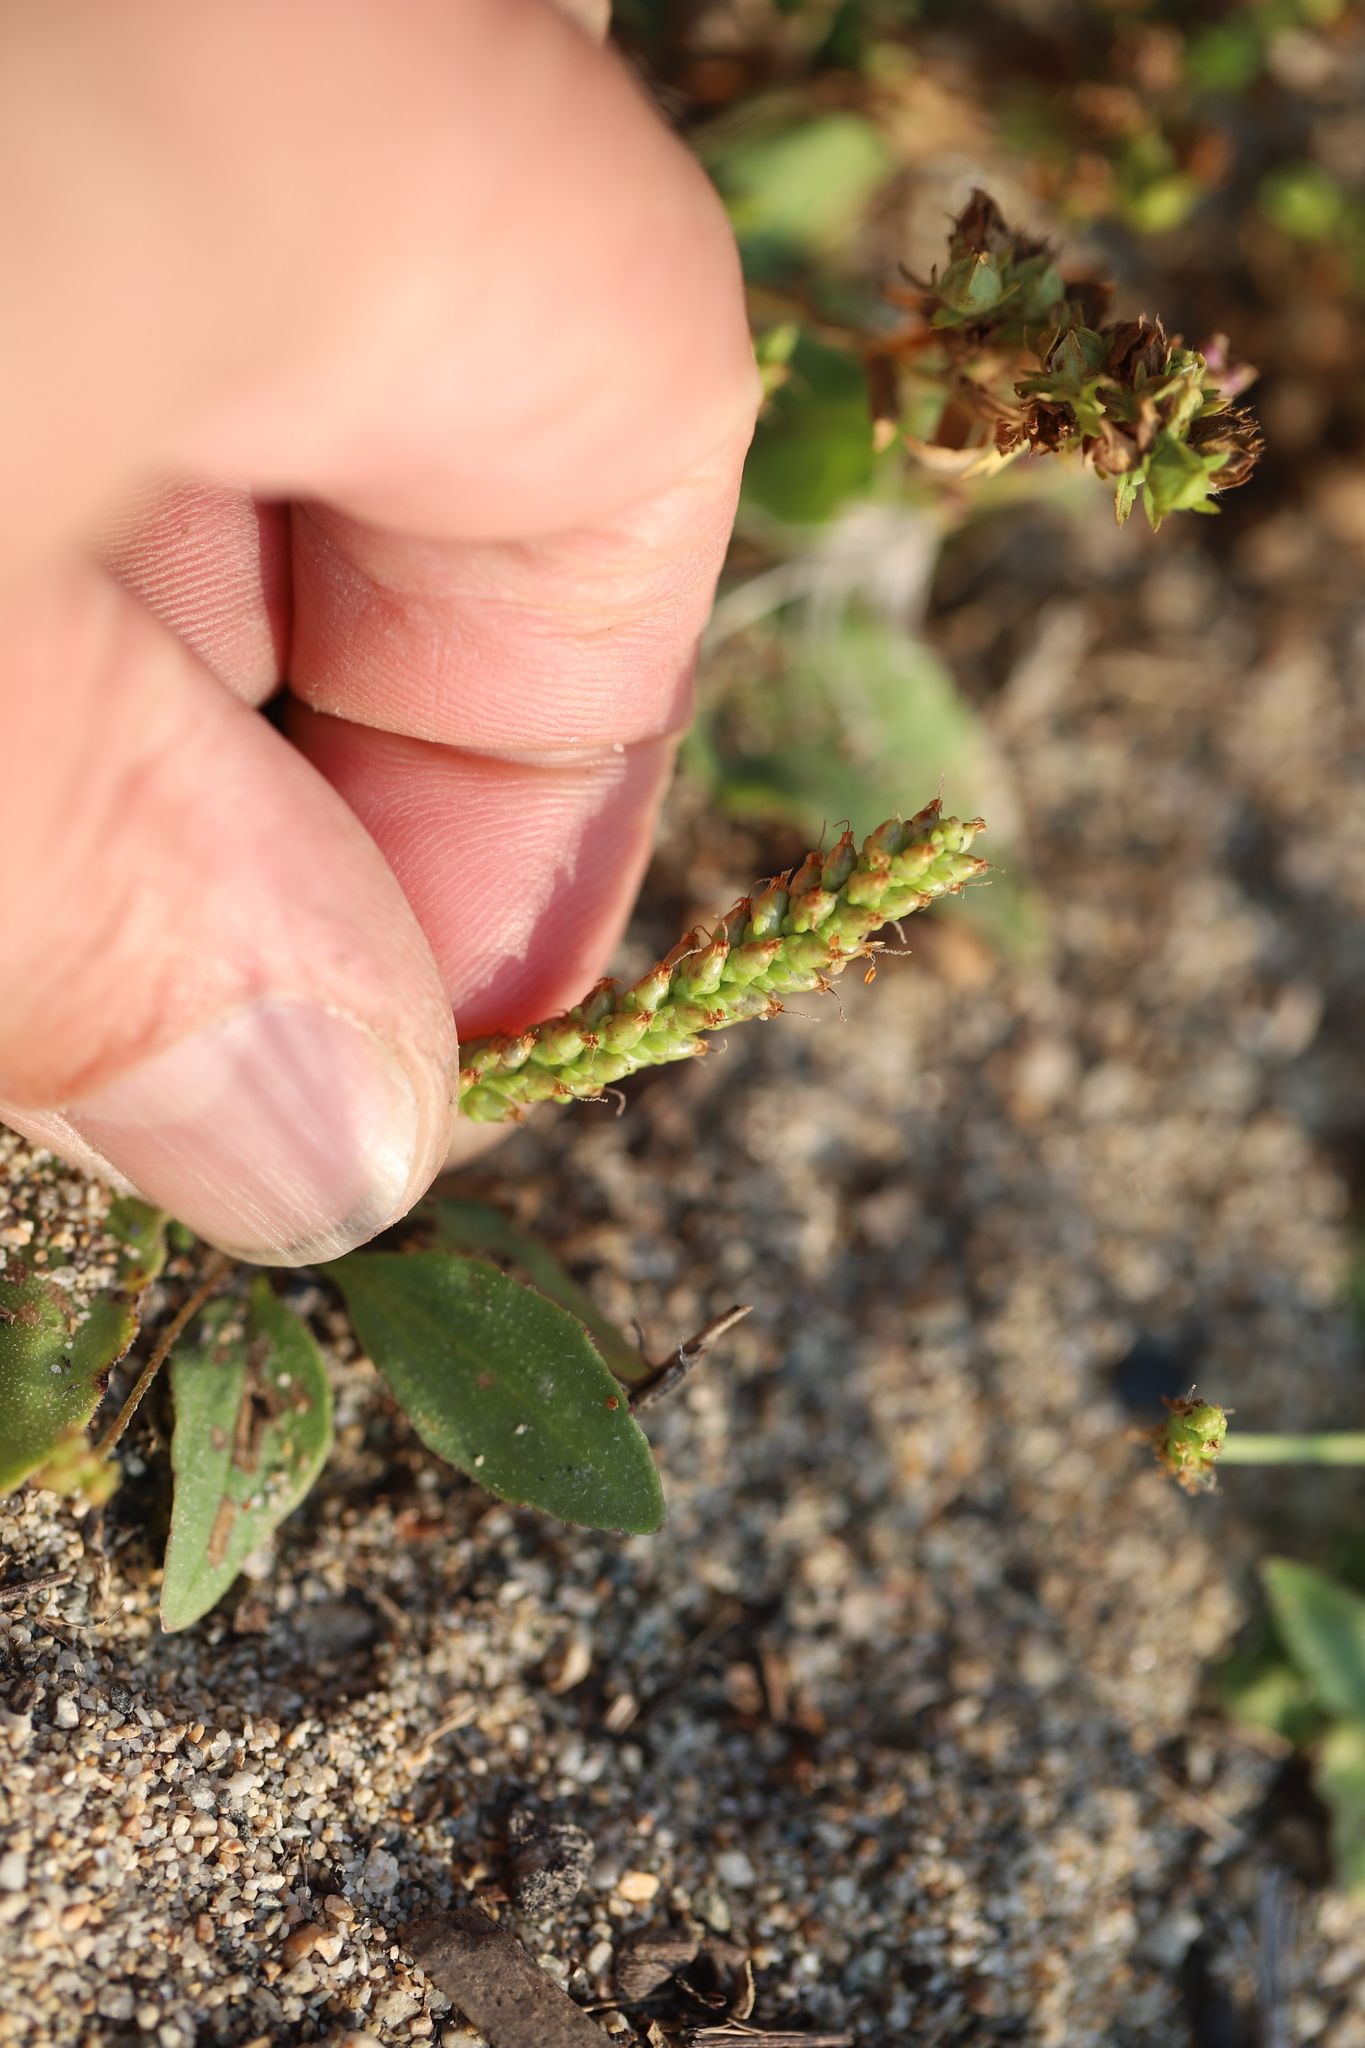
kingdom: Plantae
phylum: Tracheophyta
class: Magnoliopsida
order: Lamiales
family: Plantaginaceae
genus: Plantago
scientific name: Plantago major
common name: Common plantain
